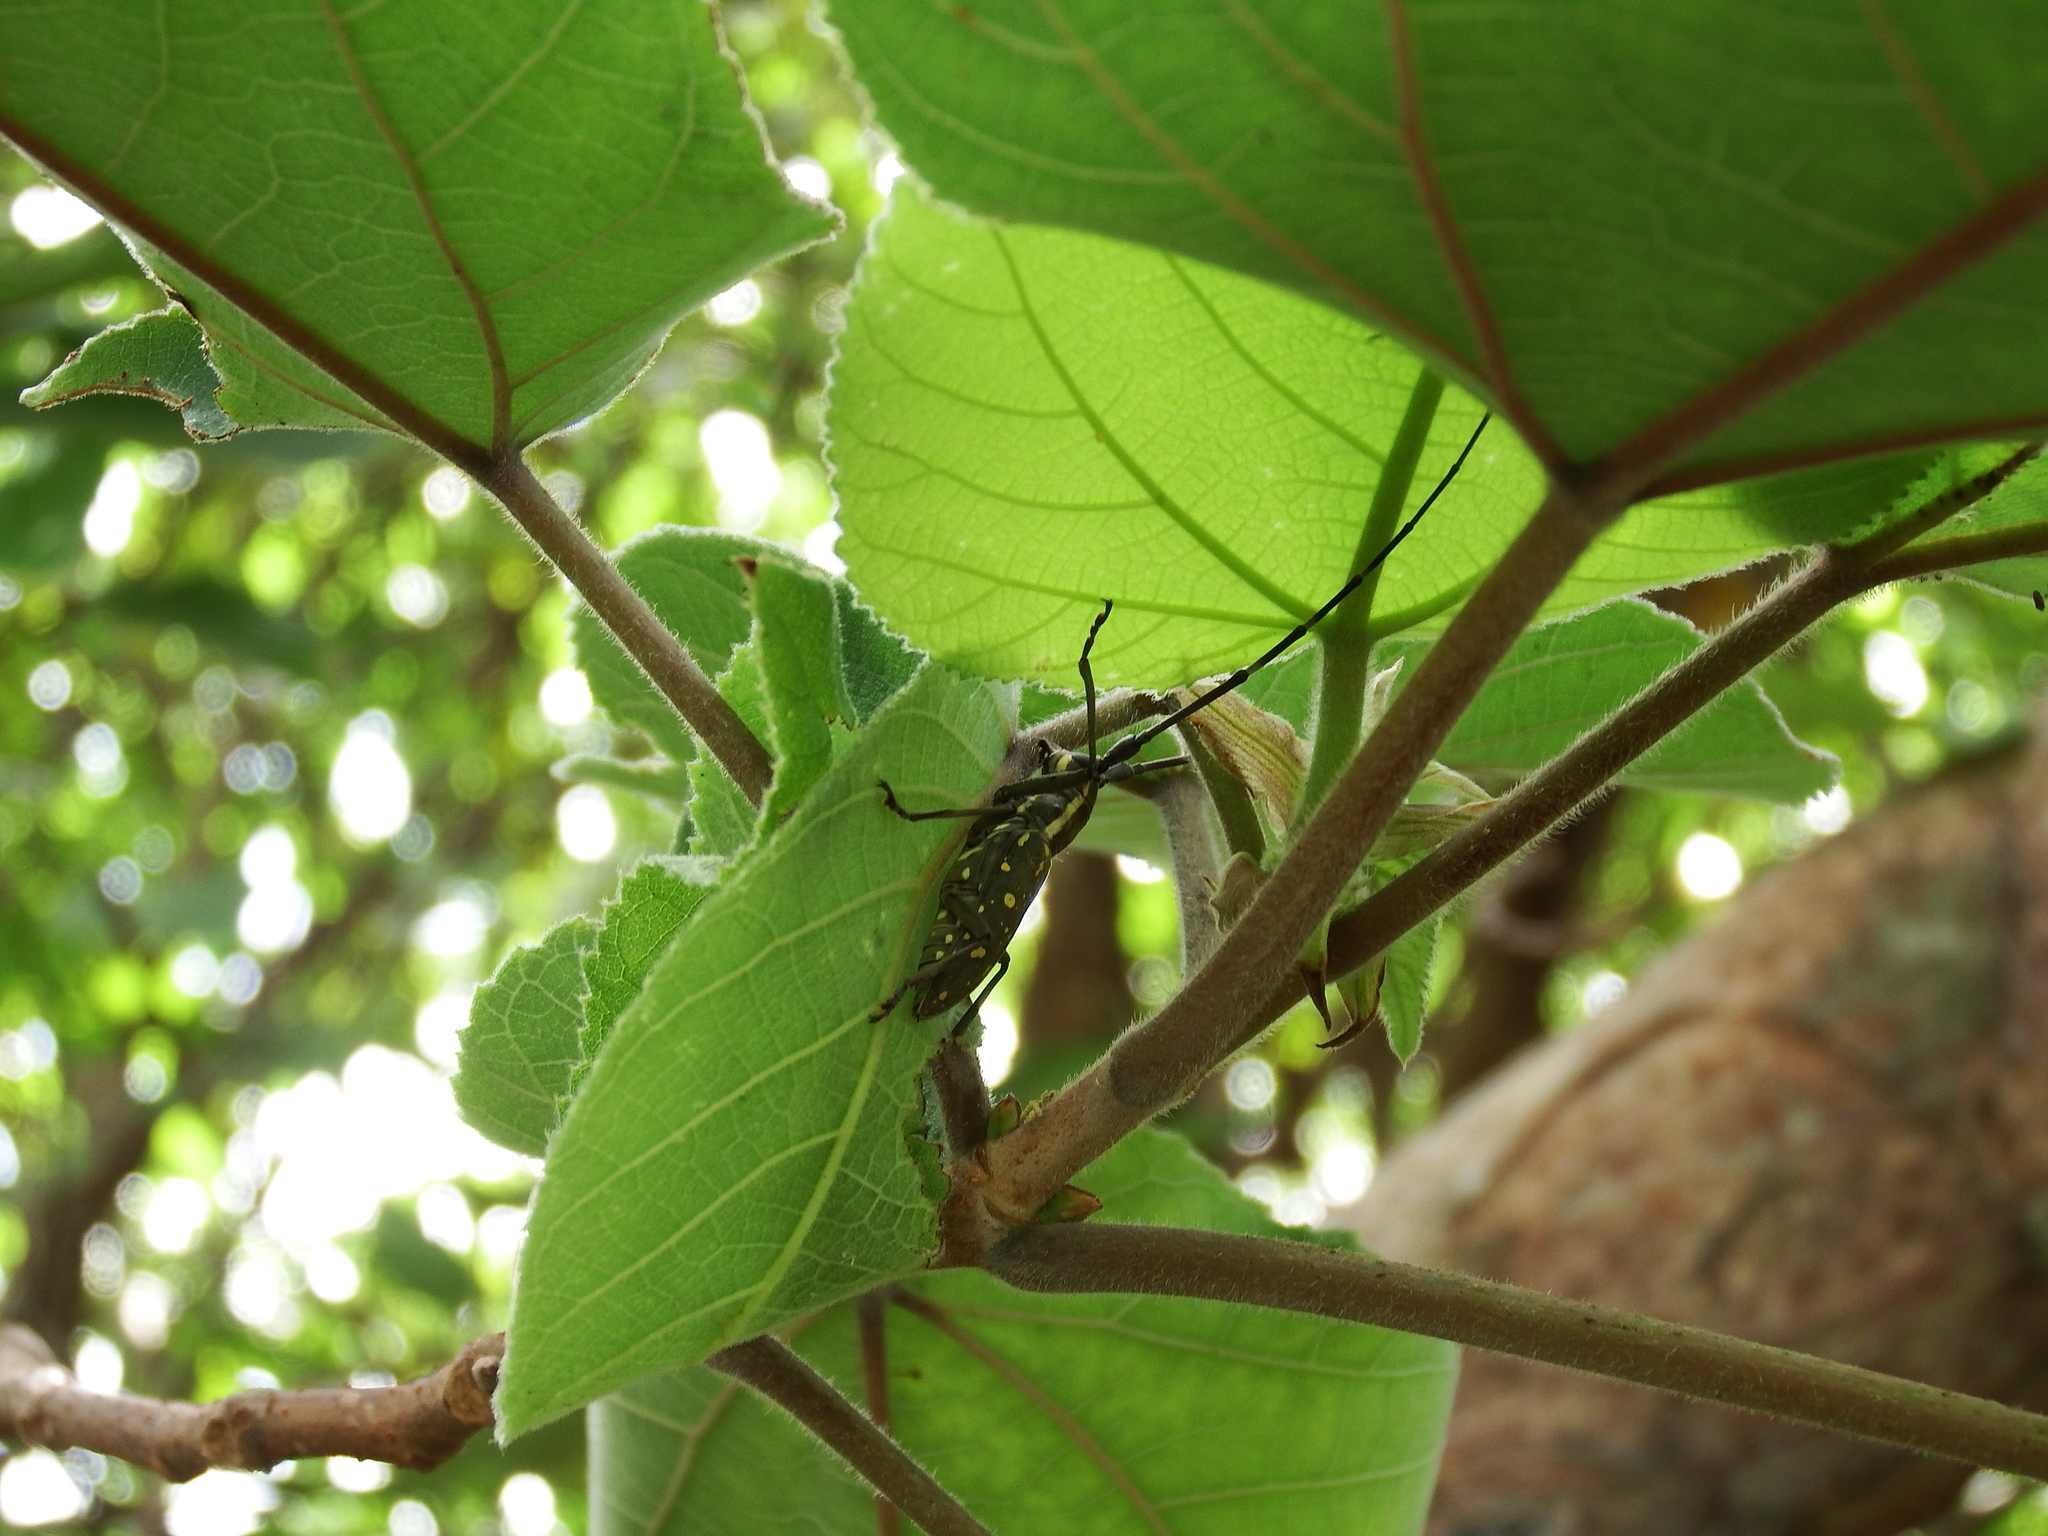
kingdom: Animalia
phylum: Arthropoda
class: Insecta
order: Coleoptera
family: Cerambycidae
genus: Psacothea
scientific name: Psacothea hilaris
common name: Yellow-spotted longicorn beetle
